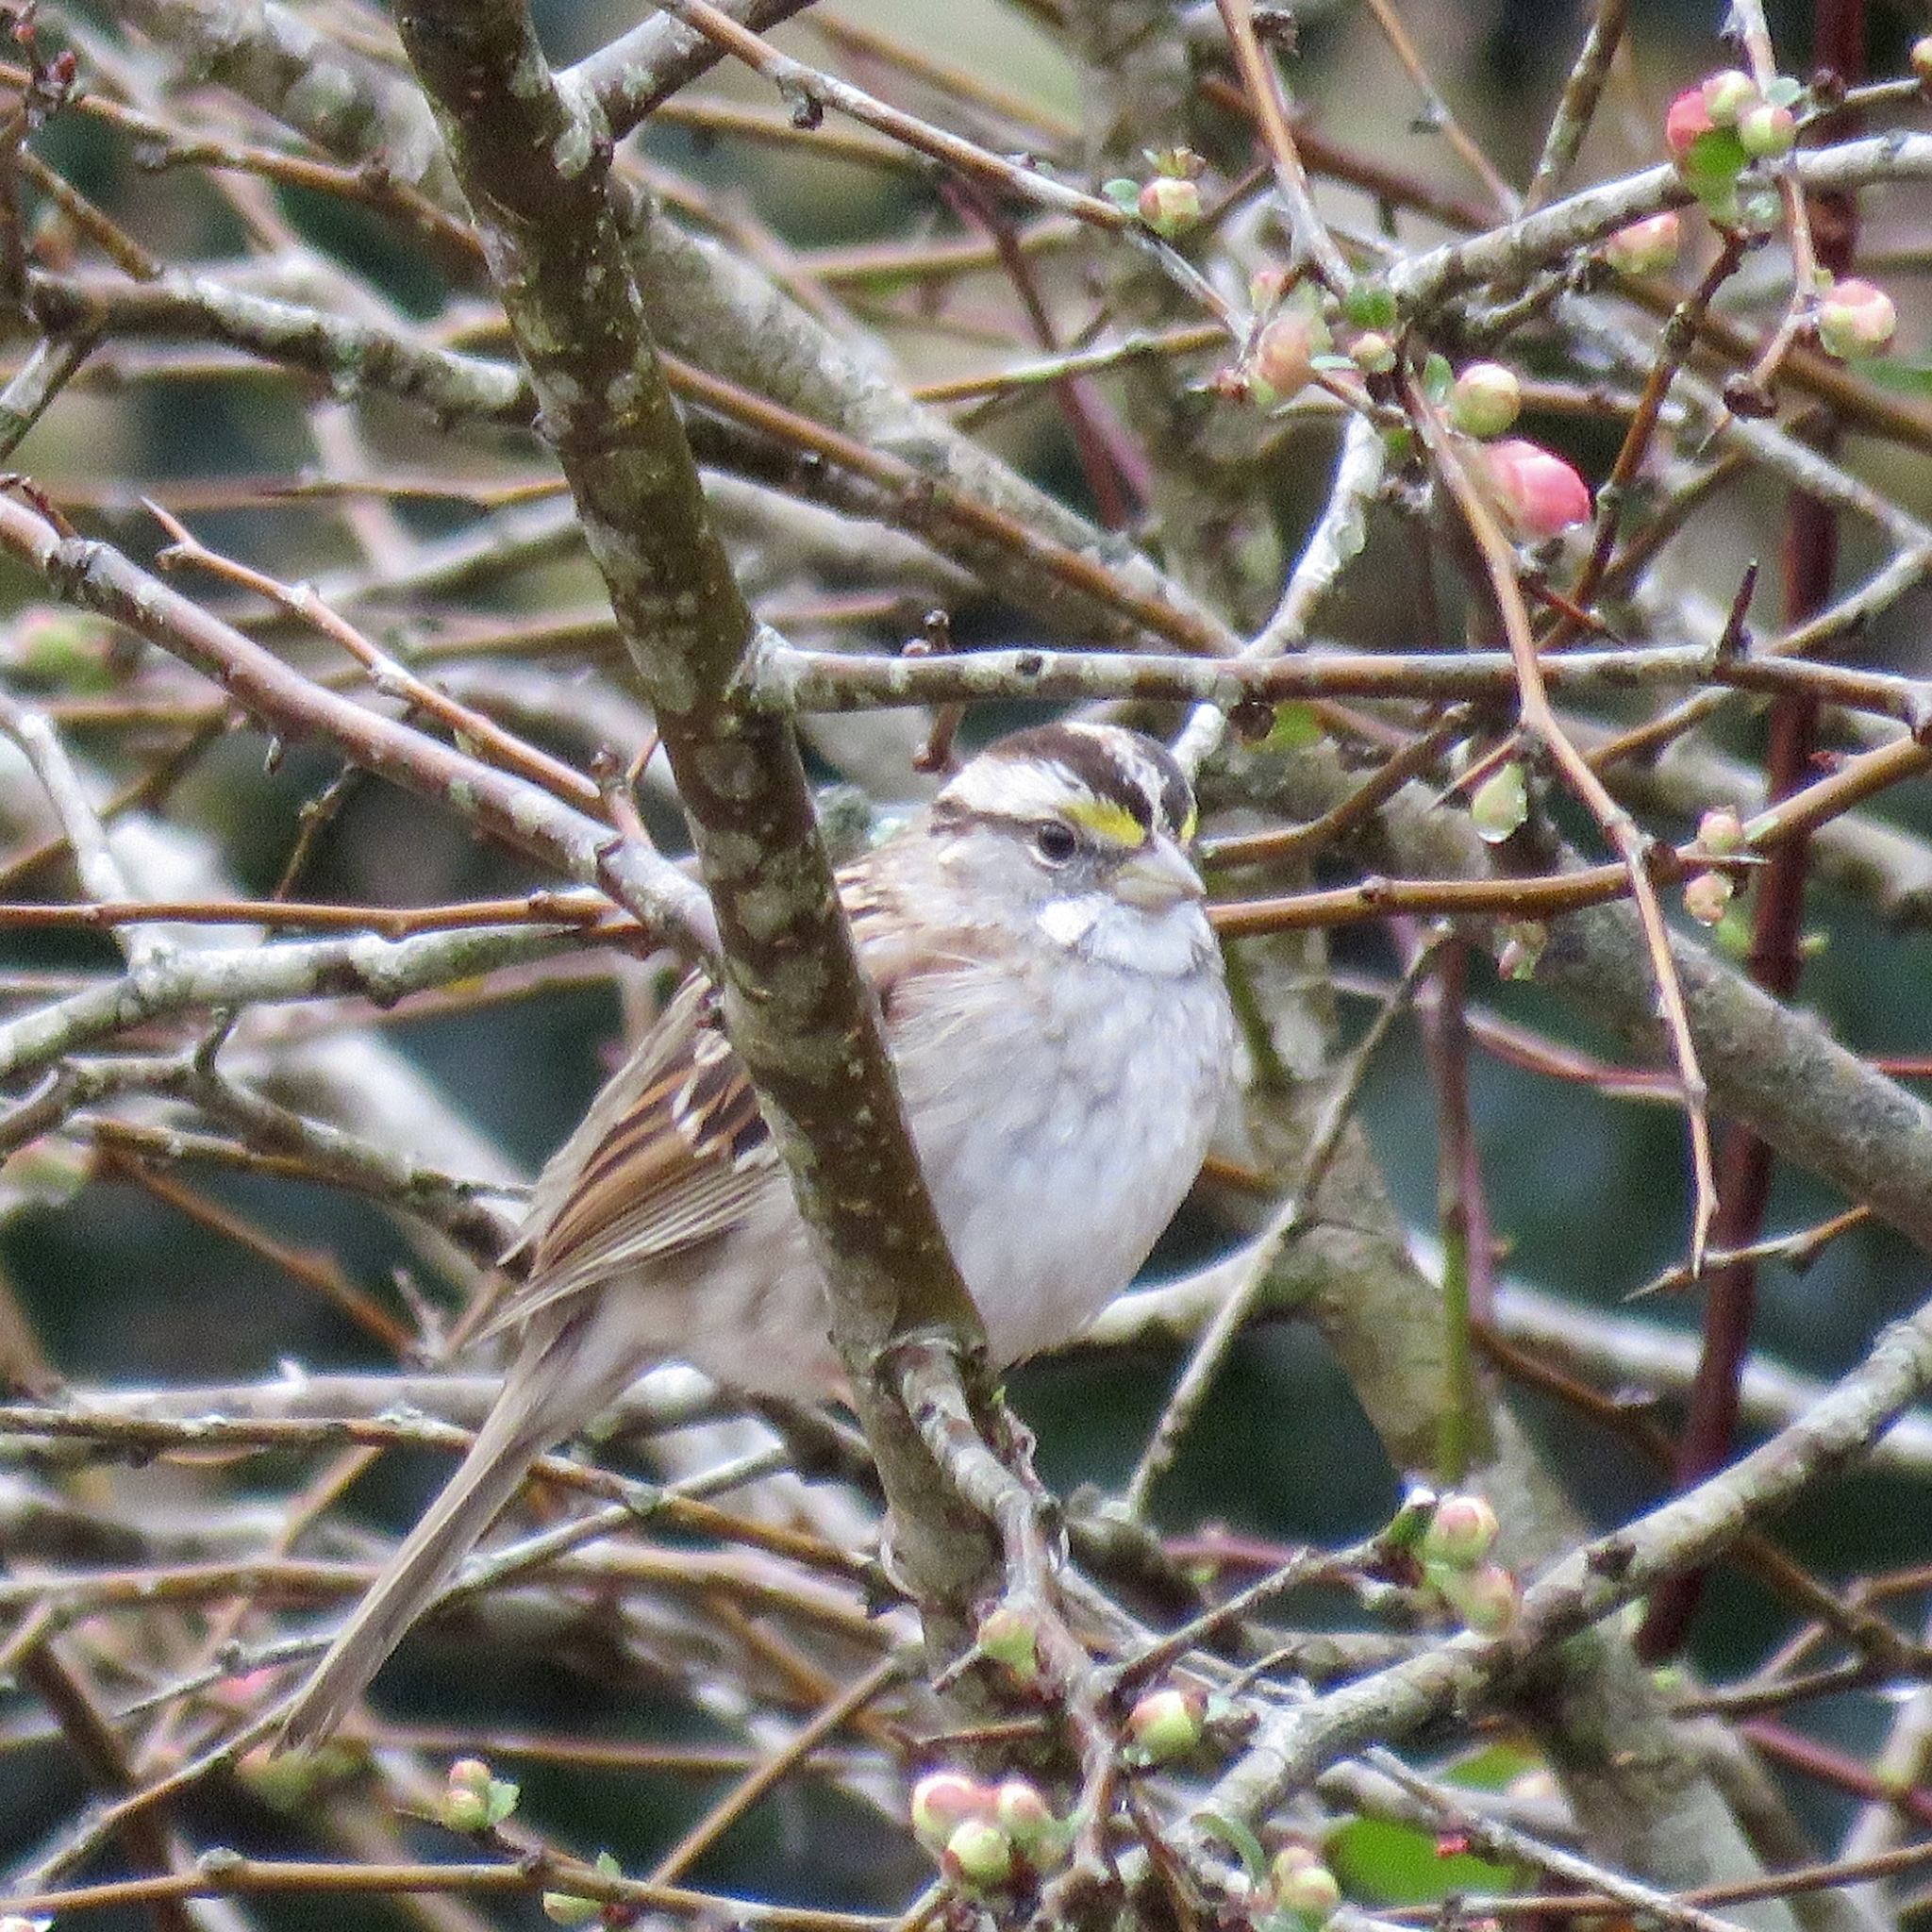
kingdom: Animalia
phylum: Chordata
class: Aves
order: Passeriformes
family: Passerellidae
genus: Zonotrichia
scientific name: Zonotrichia albicollis
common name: White-throated sparrow
